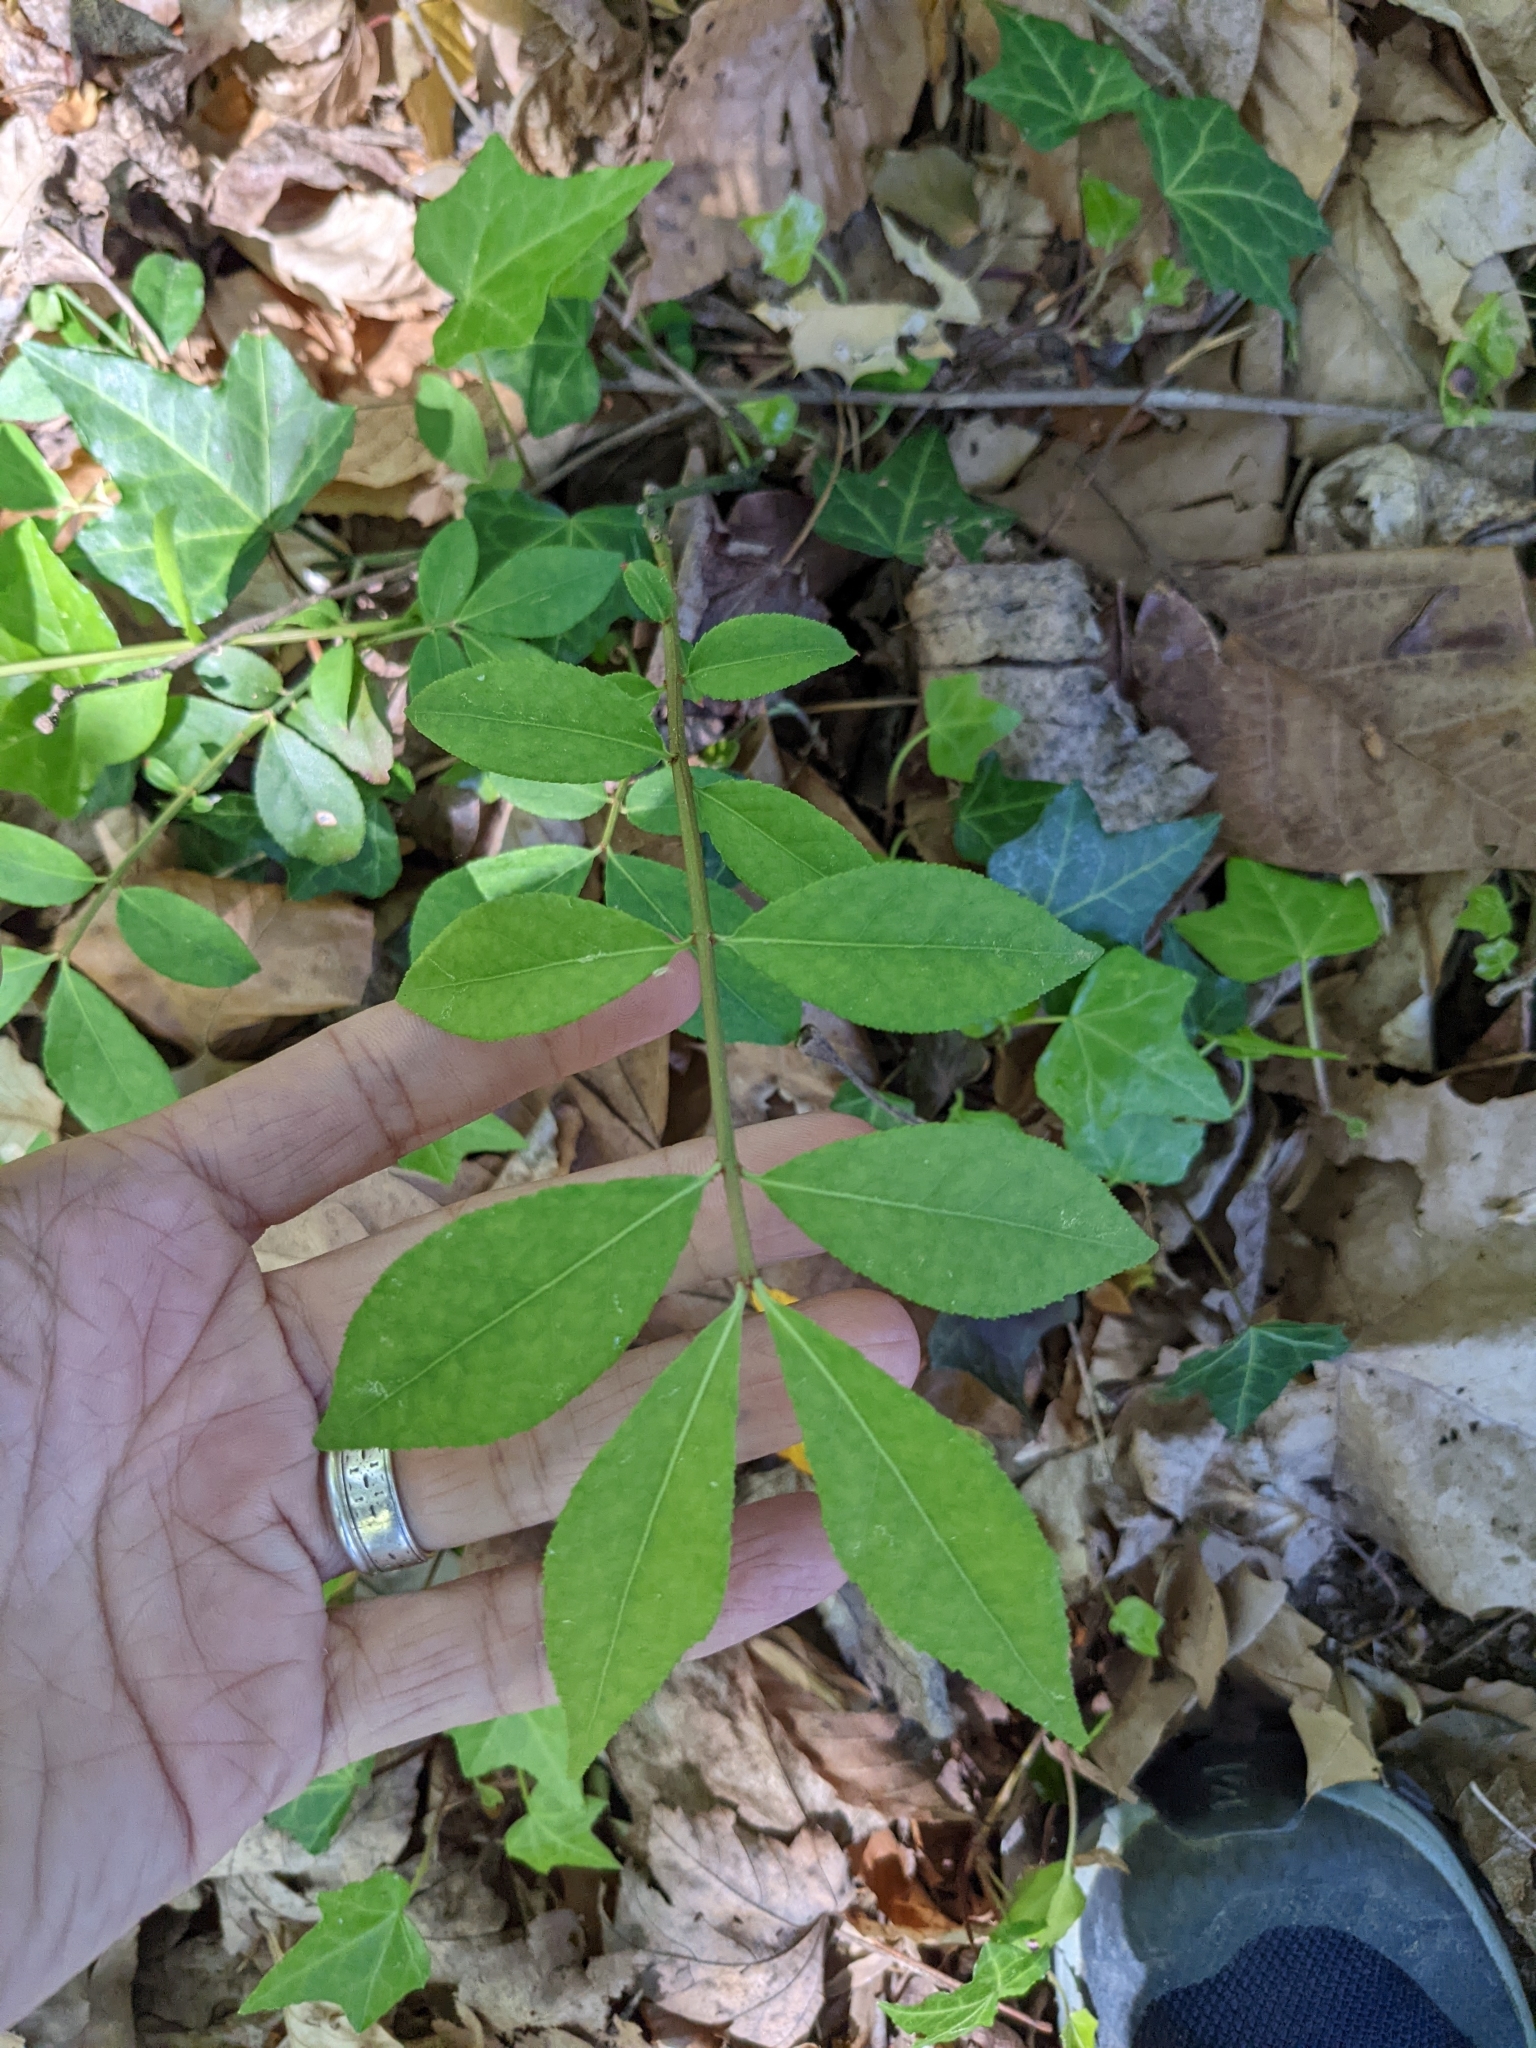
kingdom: Plantae
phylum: Tracheophyta
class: Magnoliopsida
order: Celastrales
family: Celastraceae
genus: Euonymus
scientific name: Euonymus alatus
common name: Winged euonymus
